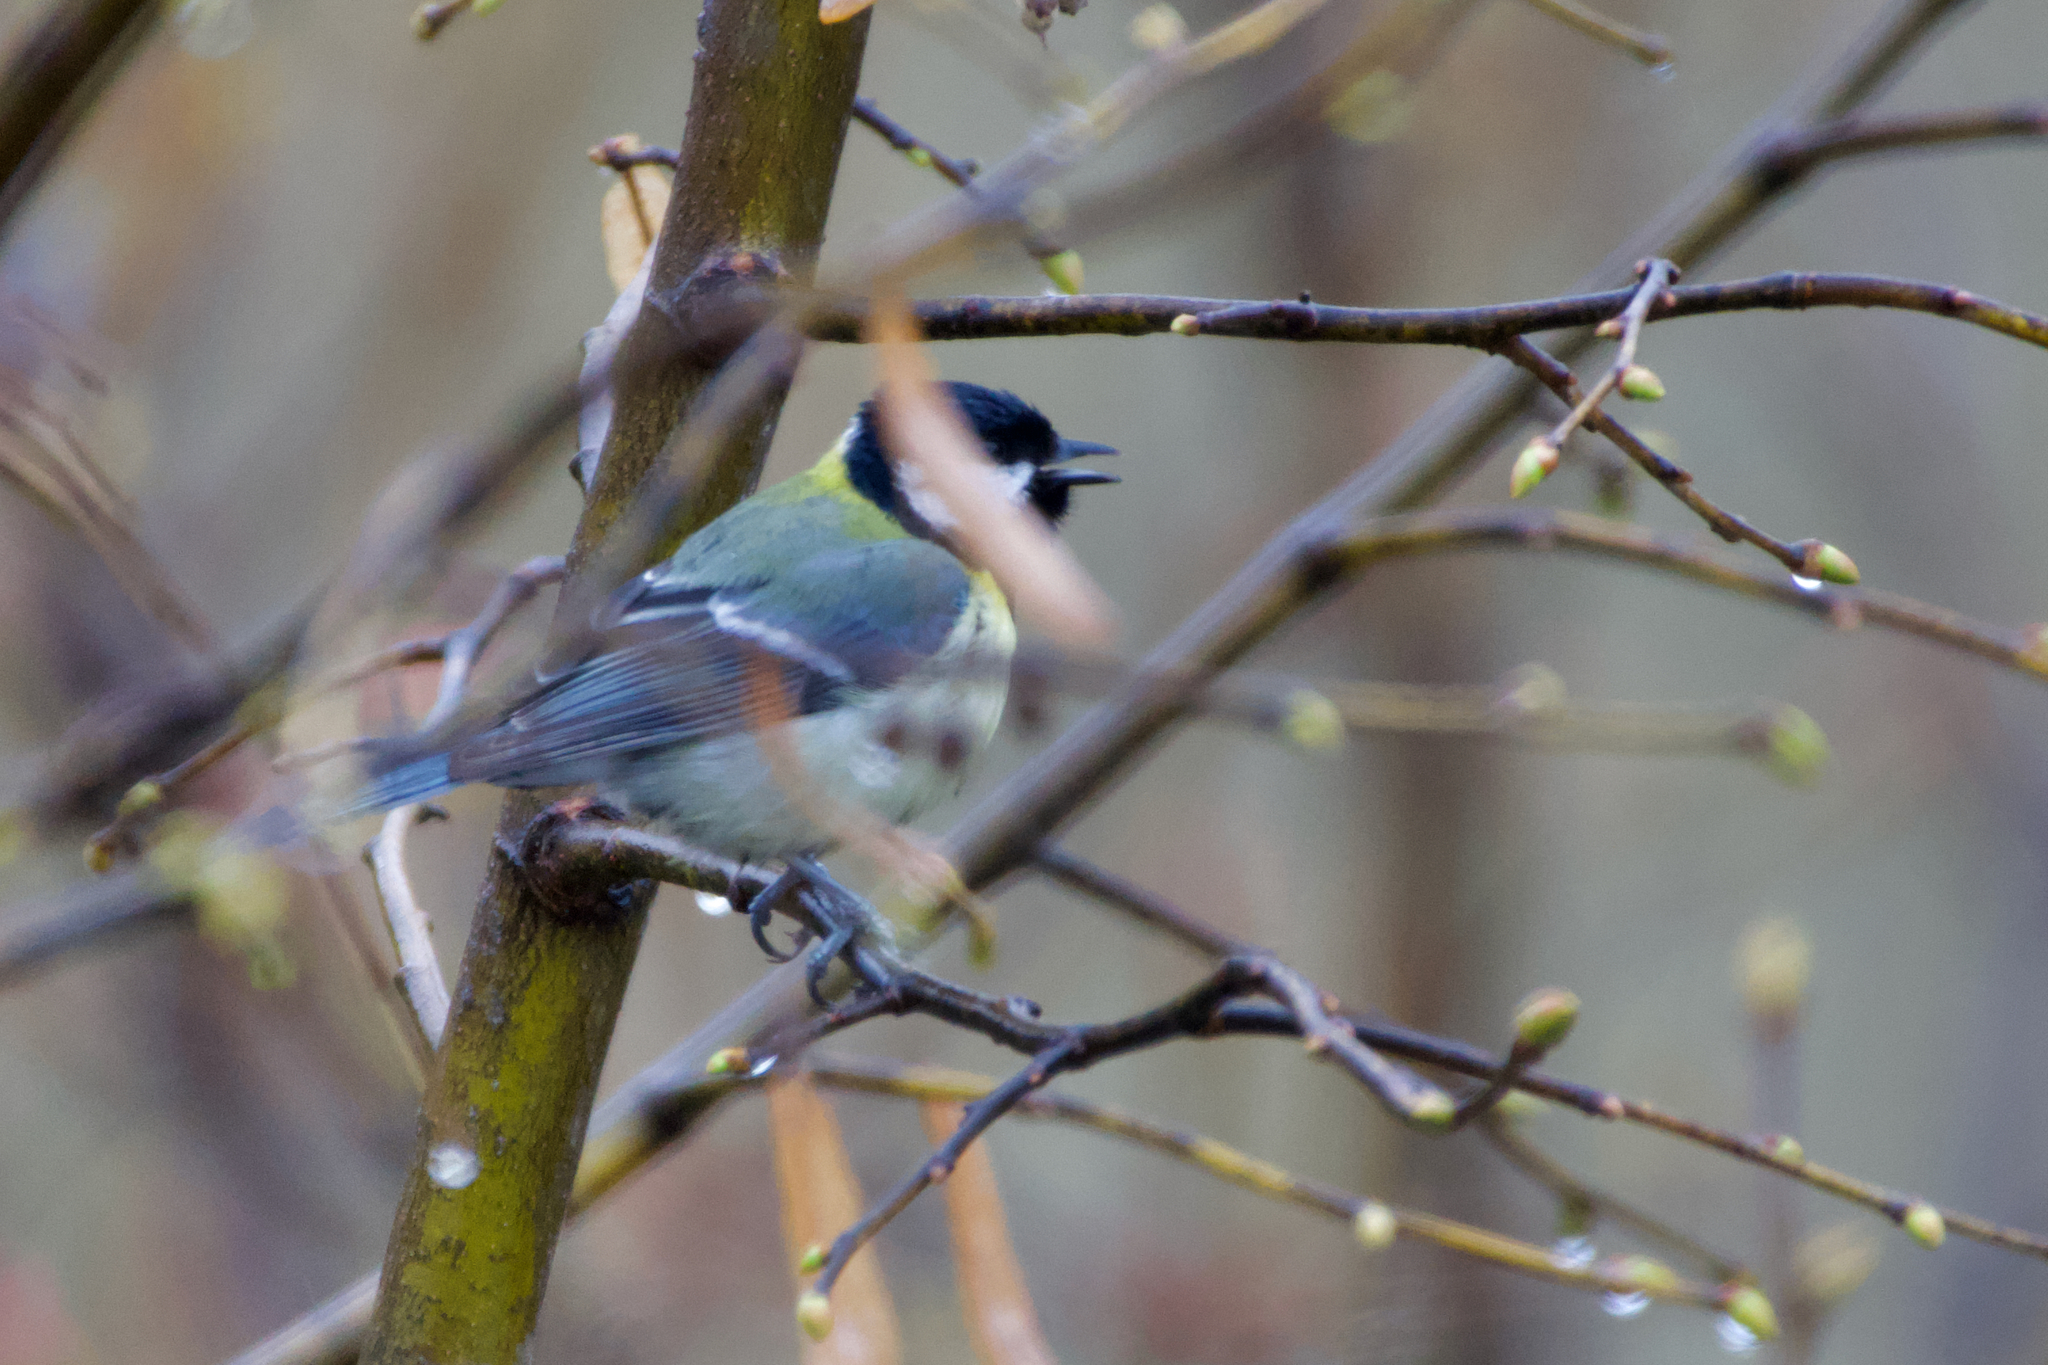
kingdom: Animalia
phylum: Chordata
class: Aves
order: Passeriformes
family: Paridae
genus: Parus
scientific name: Parus major
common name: Great tit
